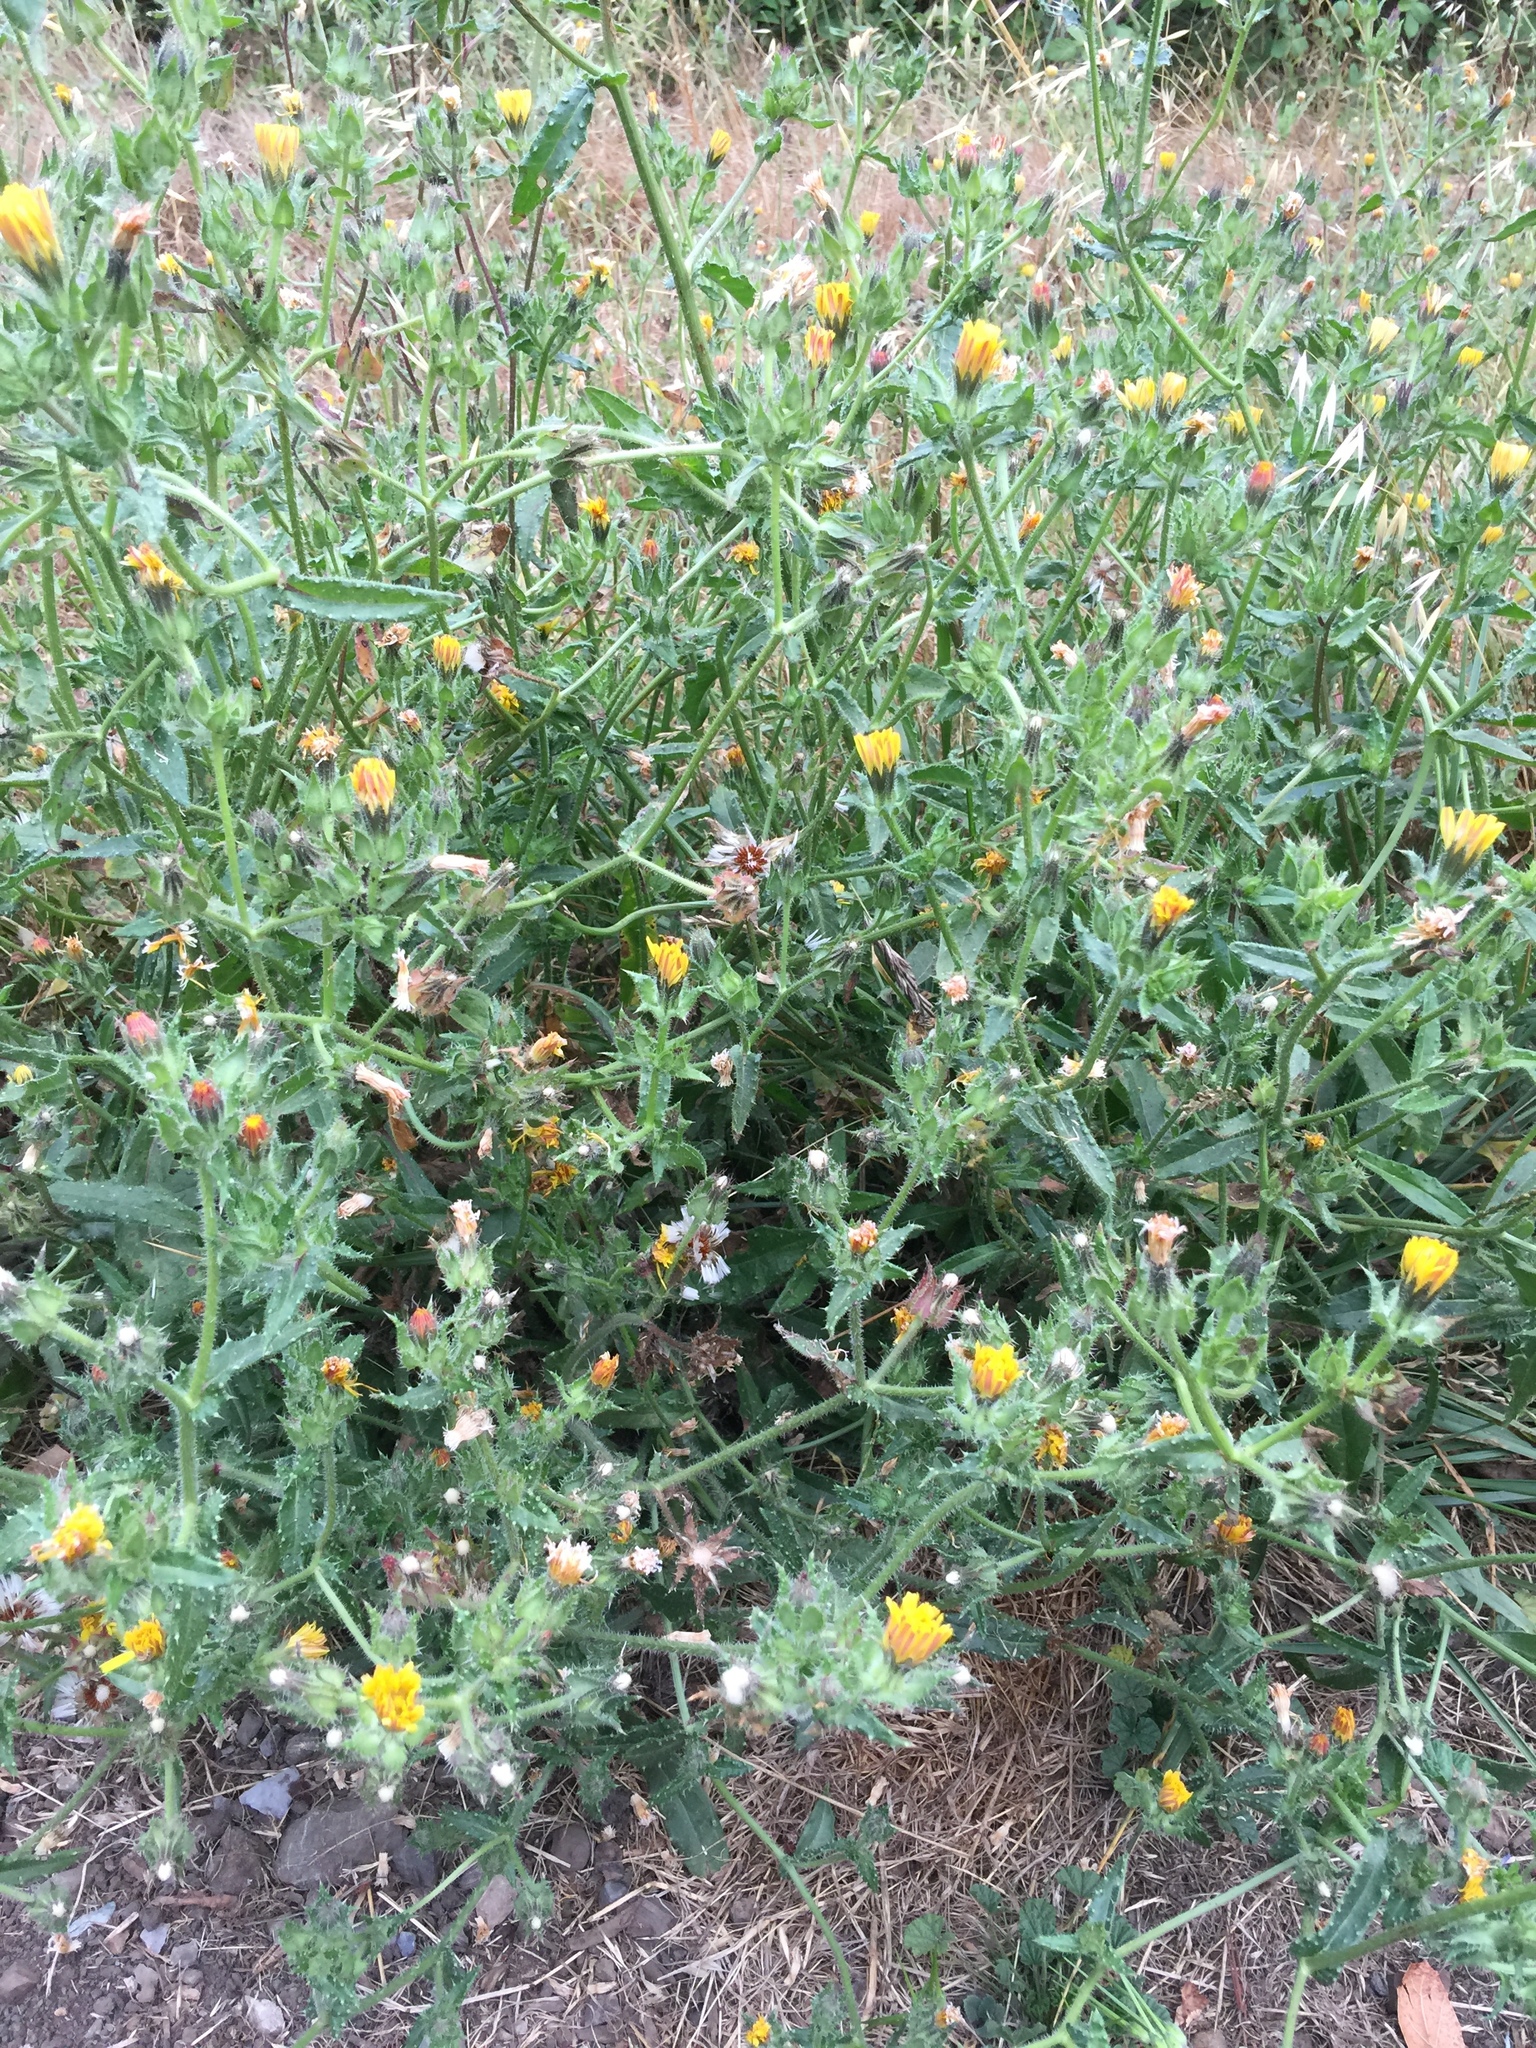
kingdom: Plantae
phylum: Tracheophyta
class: Magnoliopsida
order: Asterales
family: Asteraceae
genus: Helminthotheca
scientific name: Helminthotheca echioides
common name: Ox-tongue
